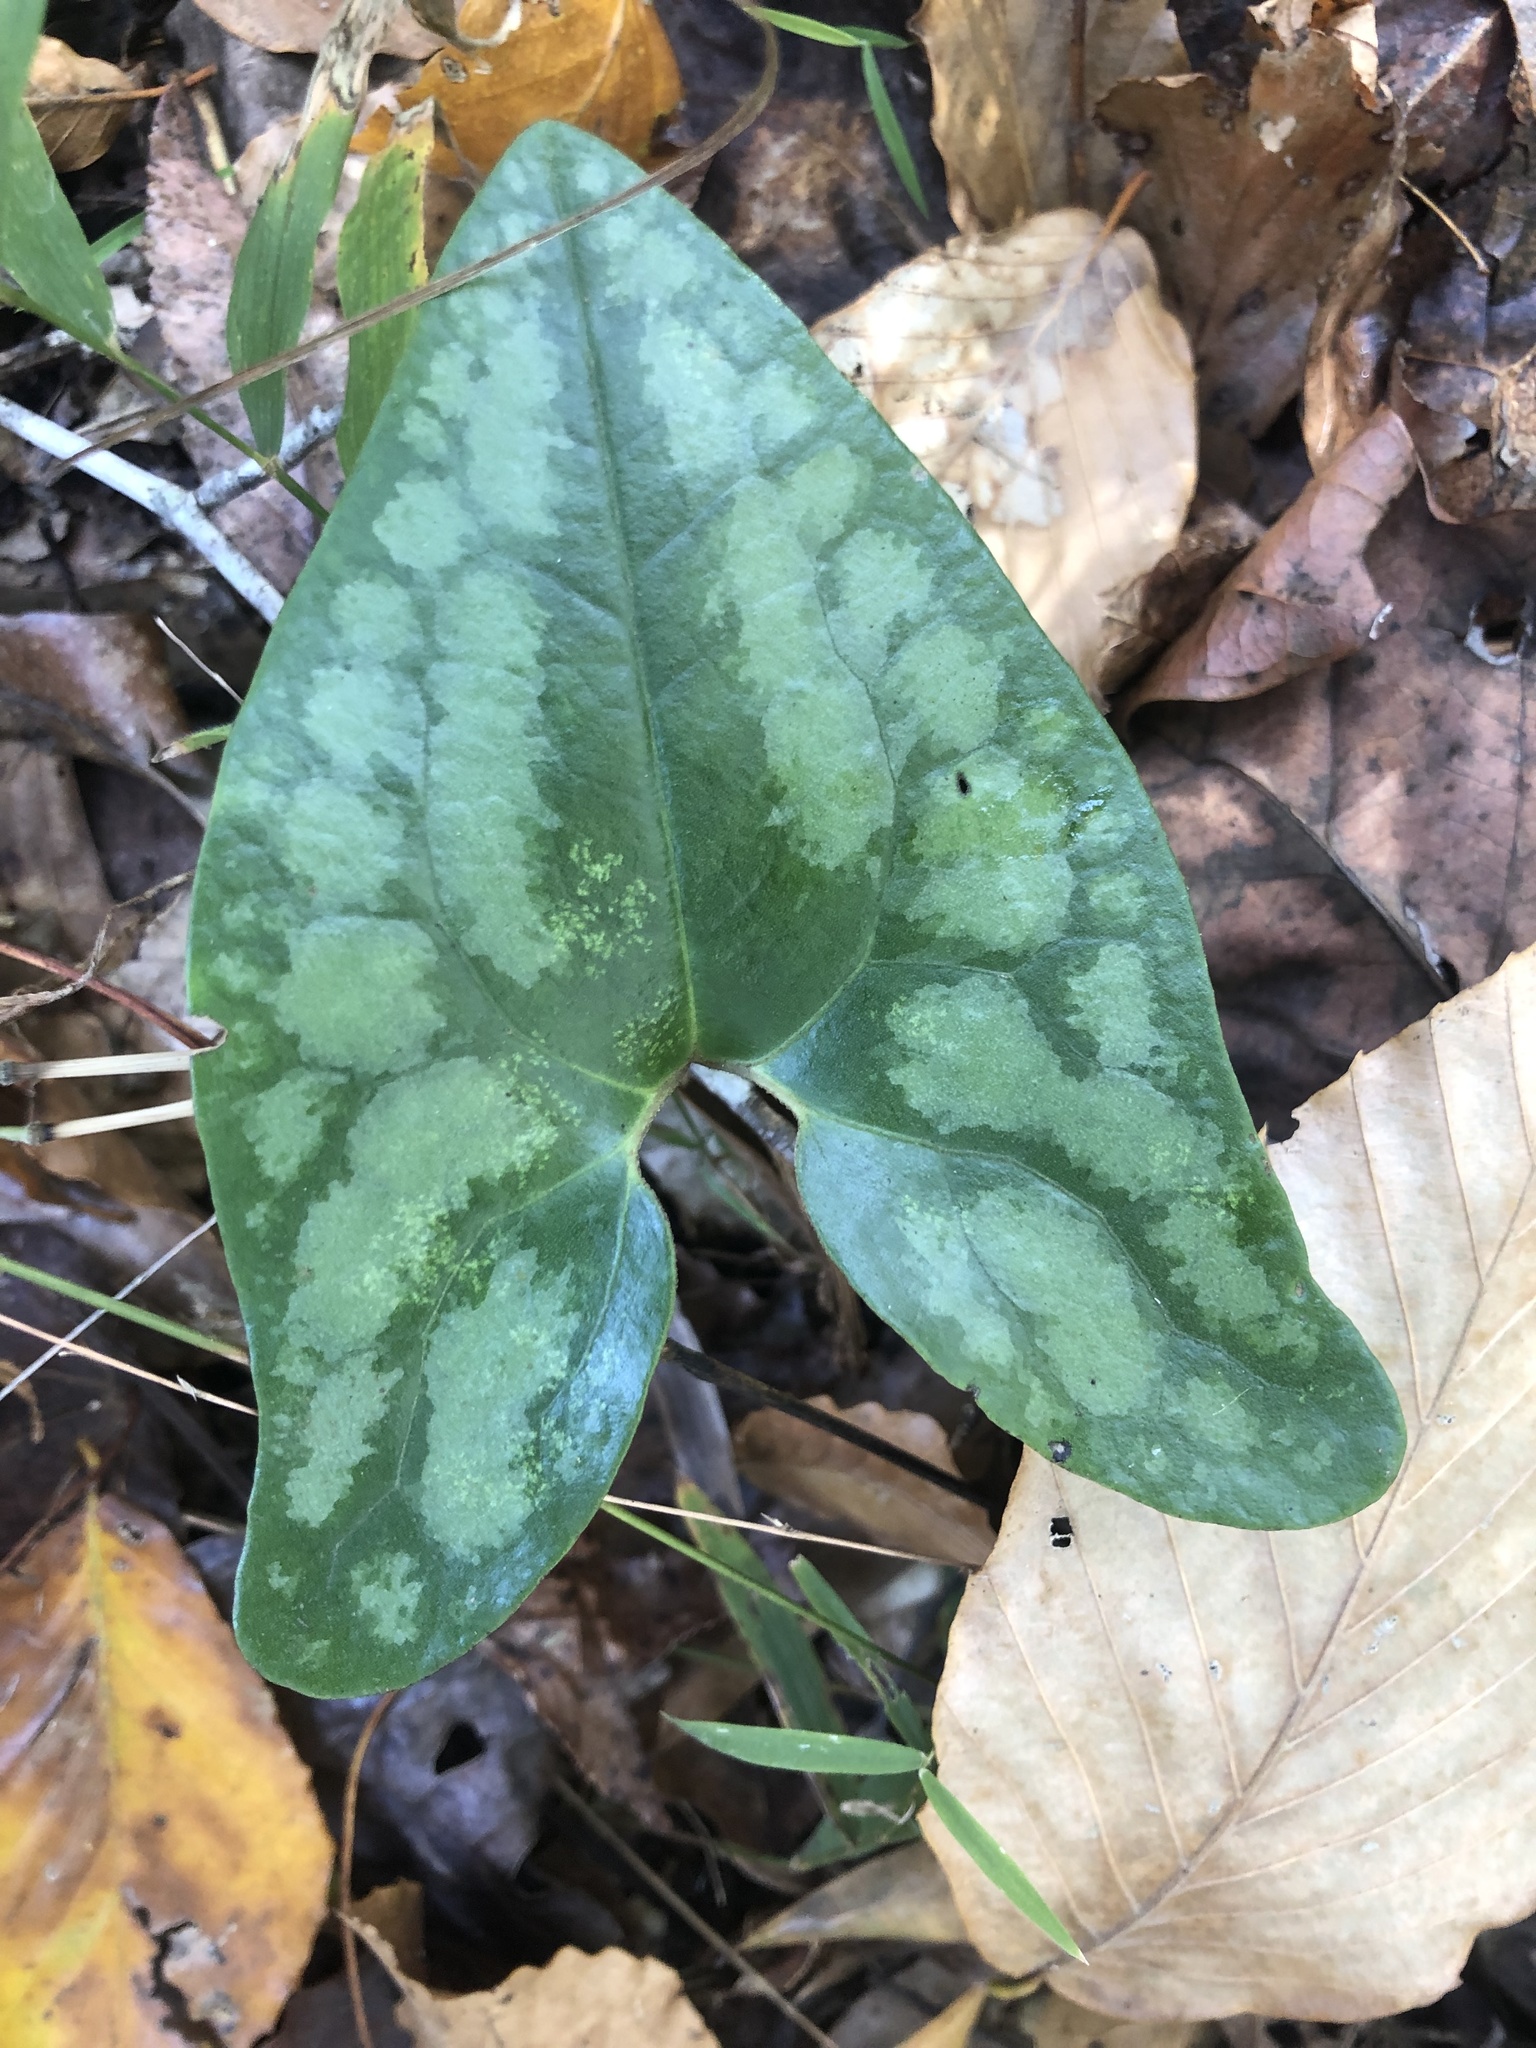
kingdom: Plantae
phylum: Tracheophyta
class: Magnoliopsida
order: Piperales
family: Aristolochiaceae
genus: Hexastylis
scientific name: Hexastylis arifolia
